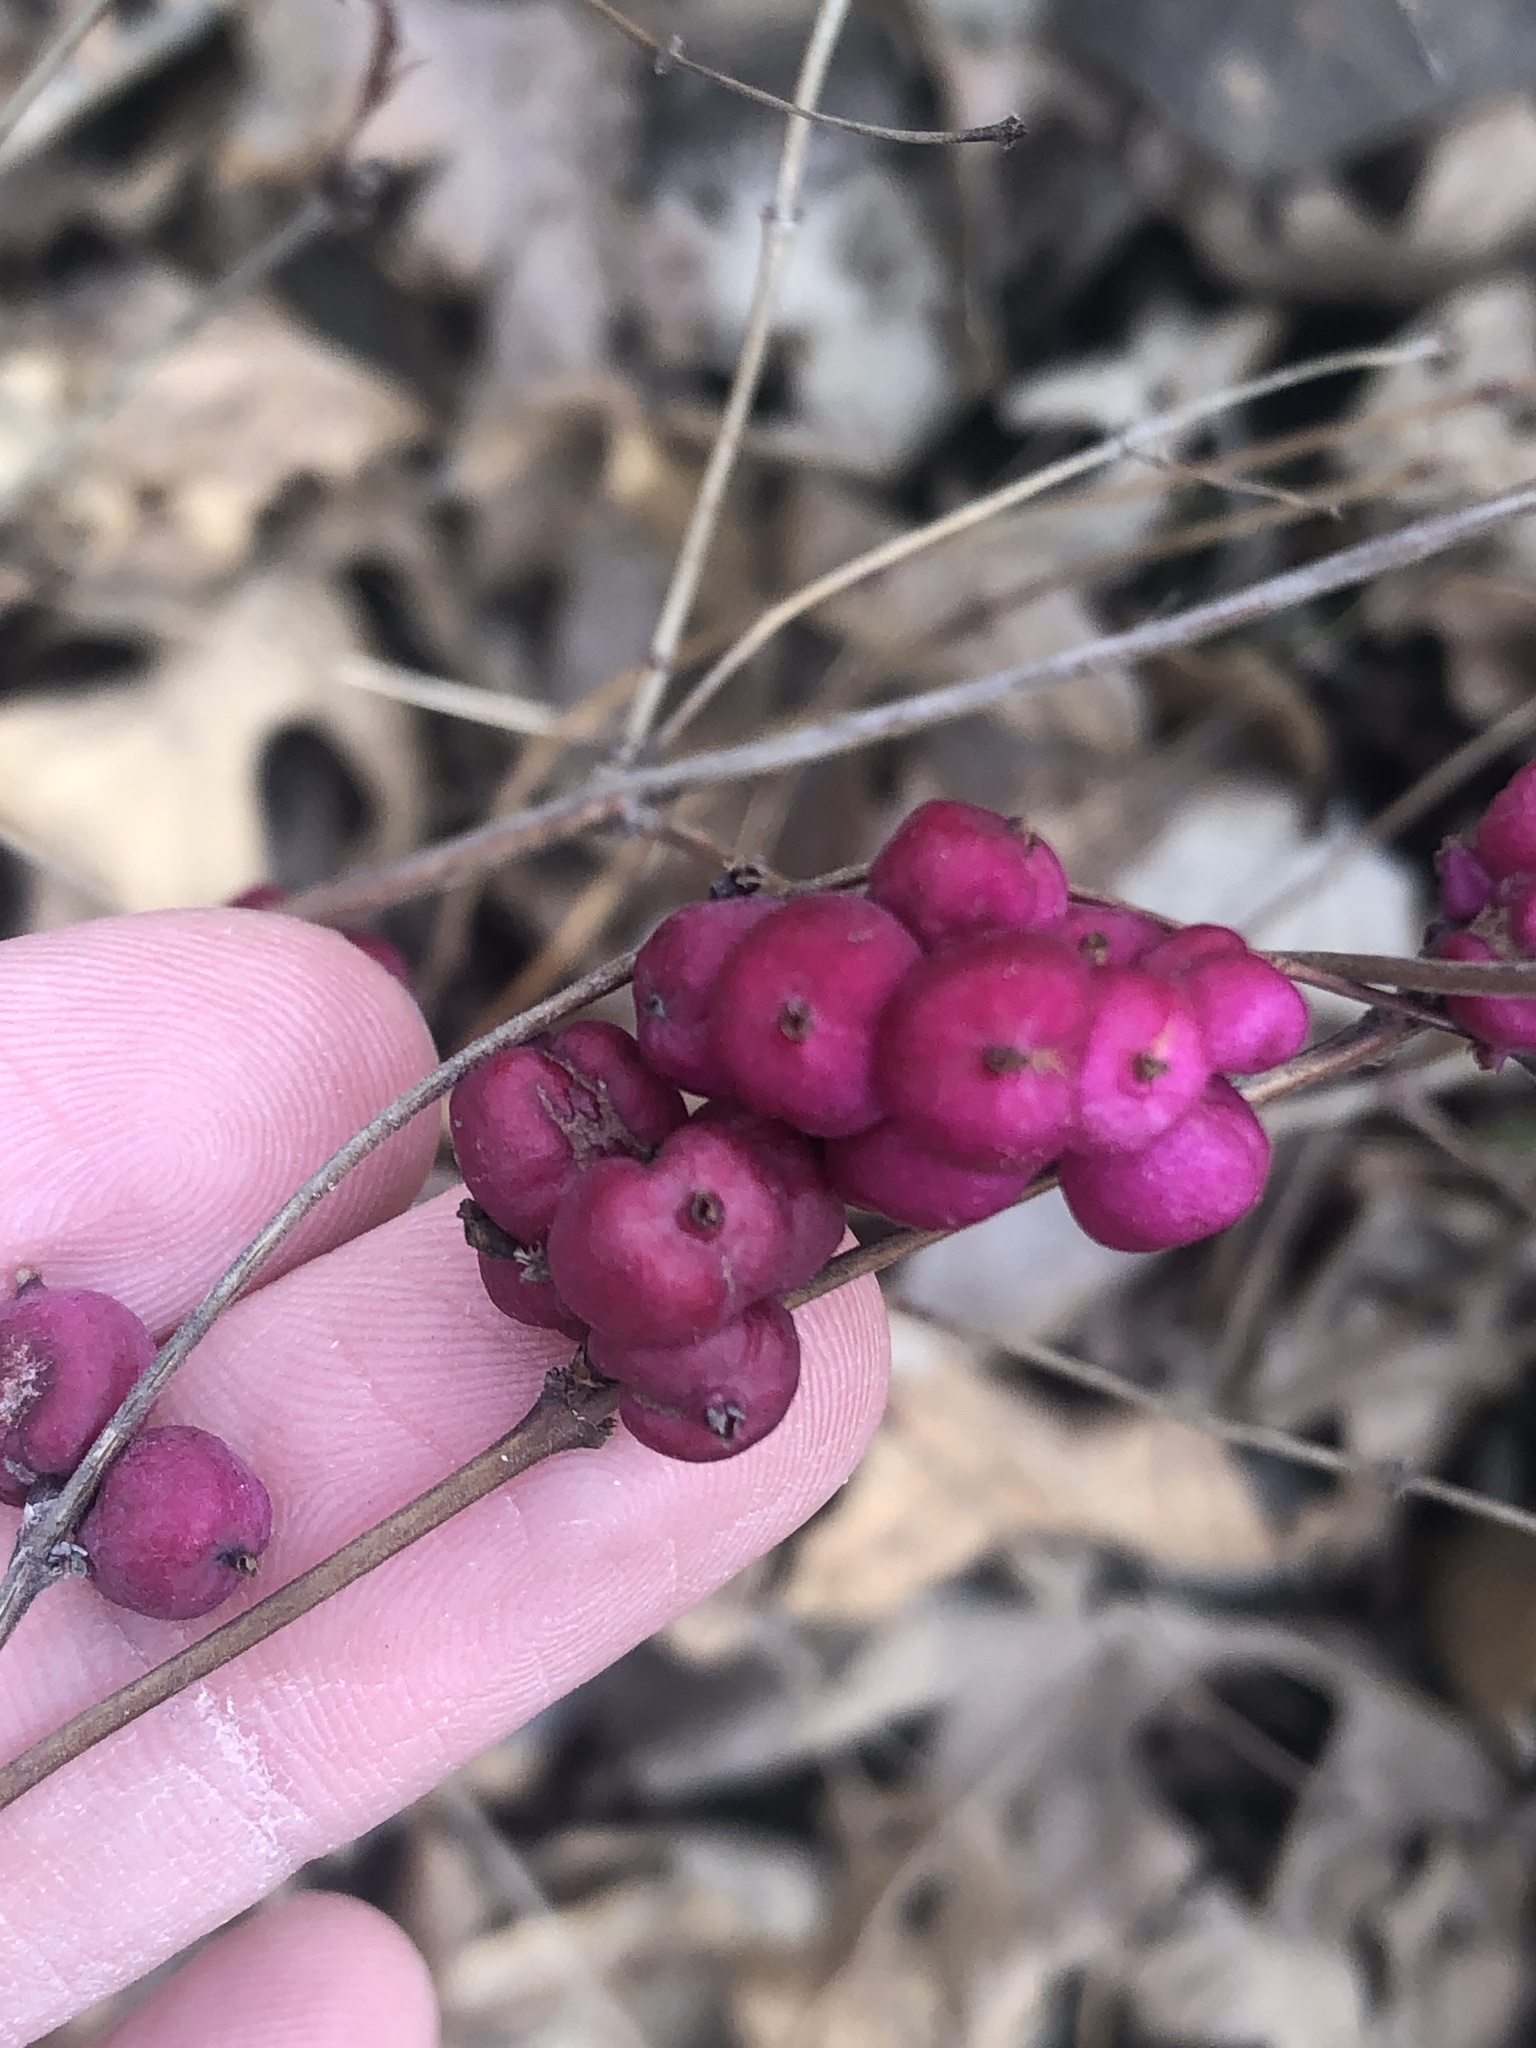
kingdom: Plantae
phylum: Tracheophyta
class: Magnoliopsida
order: Dipsacales
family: Caprifoliaceae
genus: Symphoricarpos
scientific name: Symphoricarpos orbiculatus
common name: Coralberry
